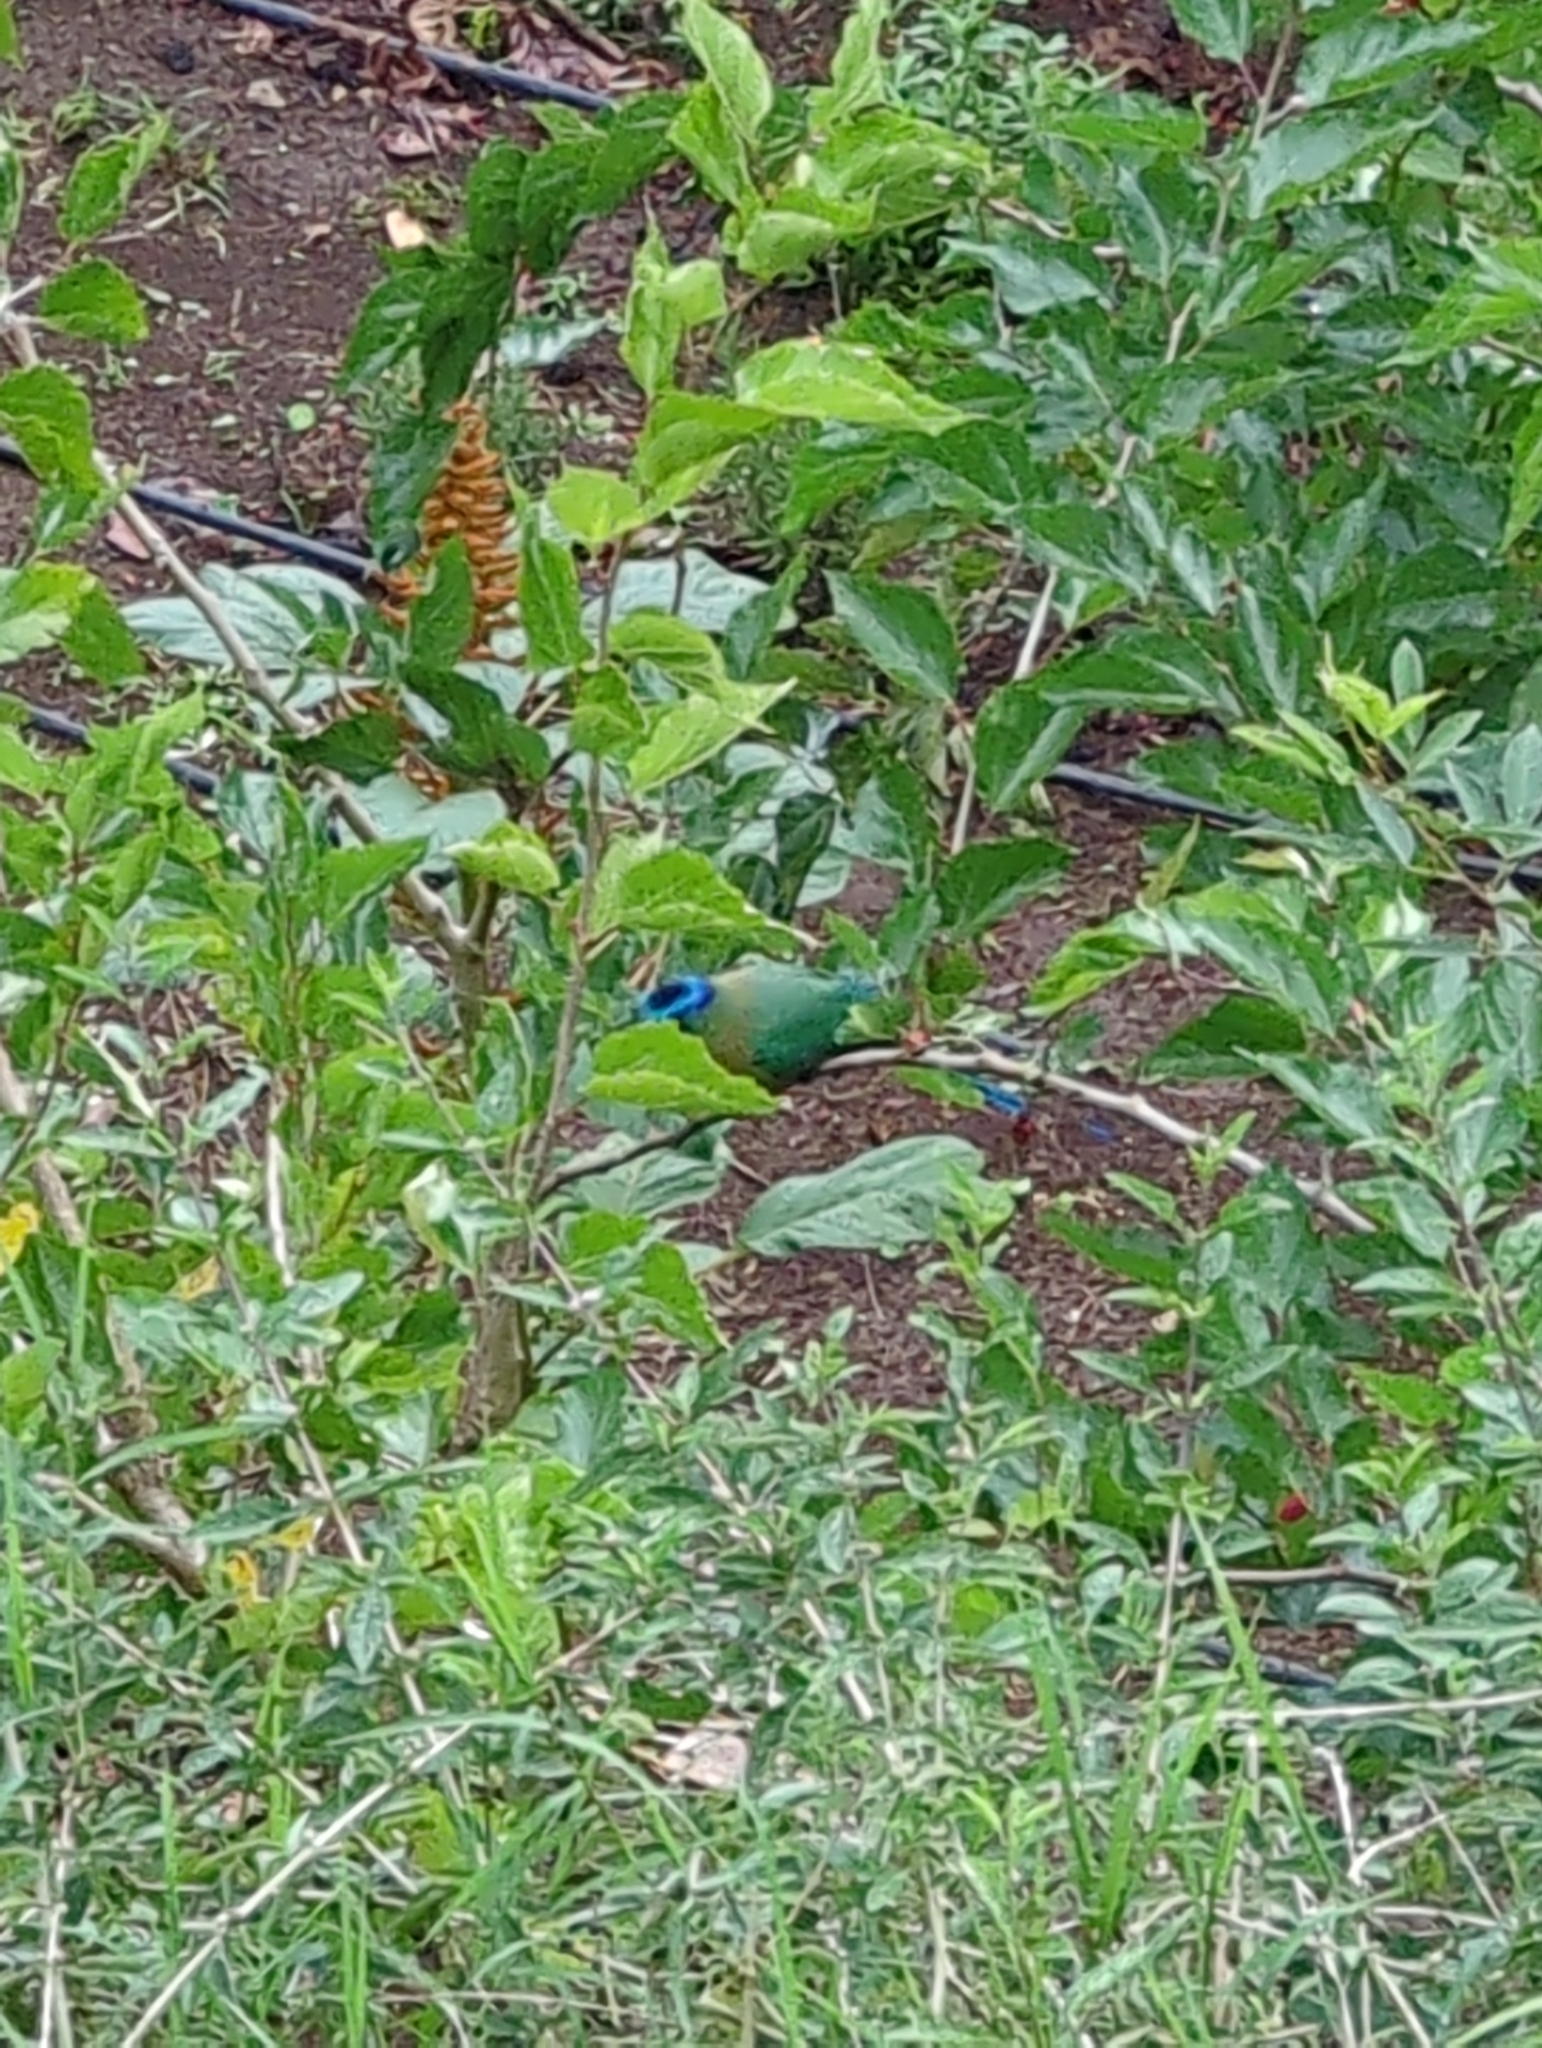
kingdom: Animalia
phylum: Chordata
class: Aves
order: Coraciiformes
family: Momotidae
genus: Momotus
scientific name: Momotus lessonii
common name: Lesson's motmot
